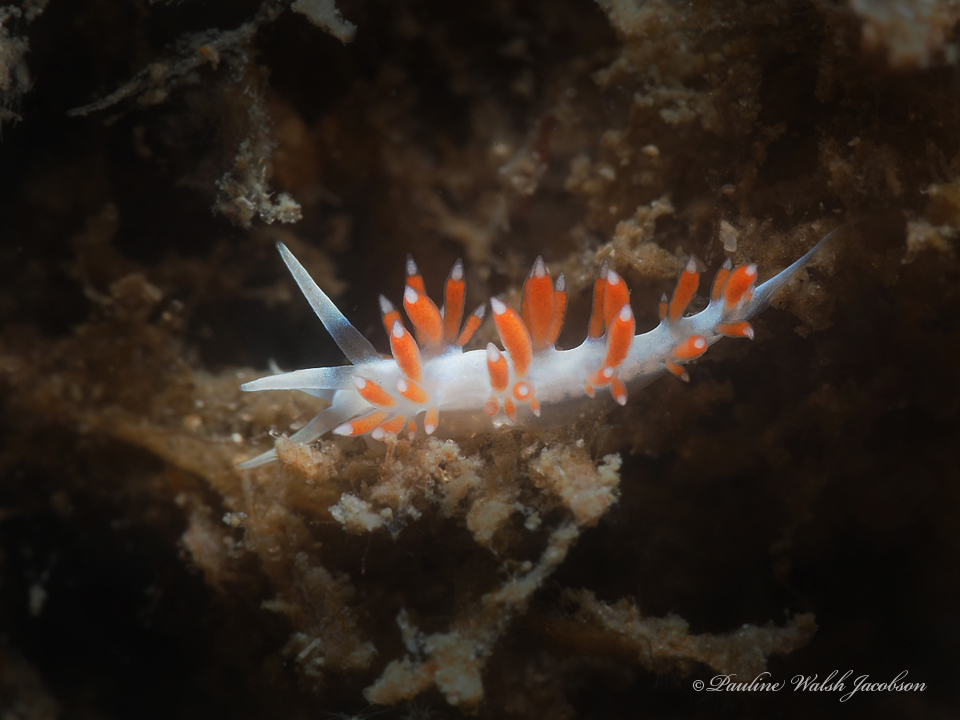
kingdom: Animalia
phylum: Mollusca
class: Gastropoda
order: Nudibranchia
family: Flabellinidae
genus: Flabellina
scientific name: Flabellina dushia
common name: Dushia flabellina
